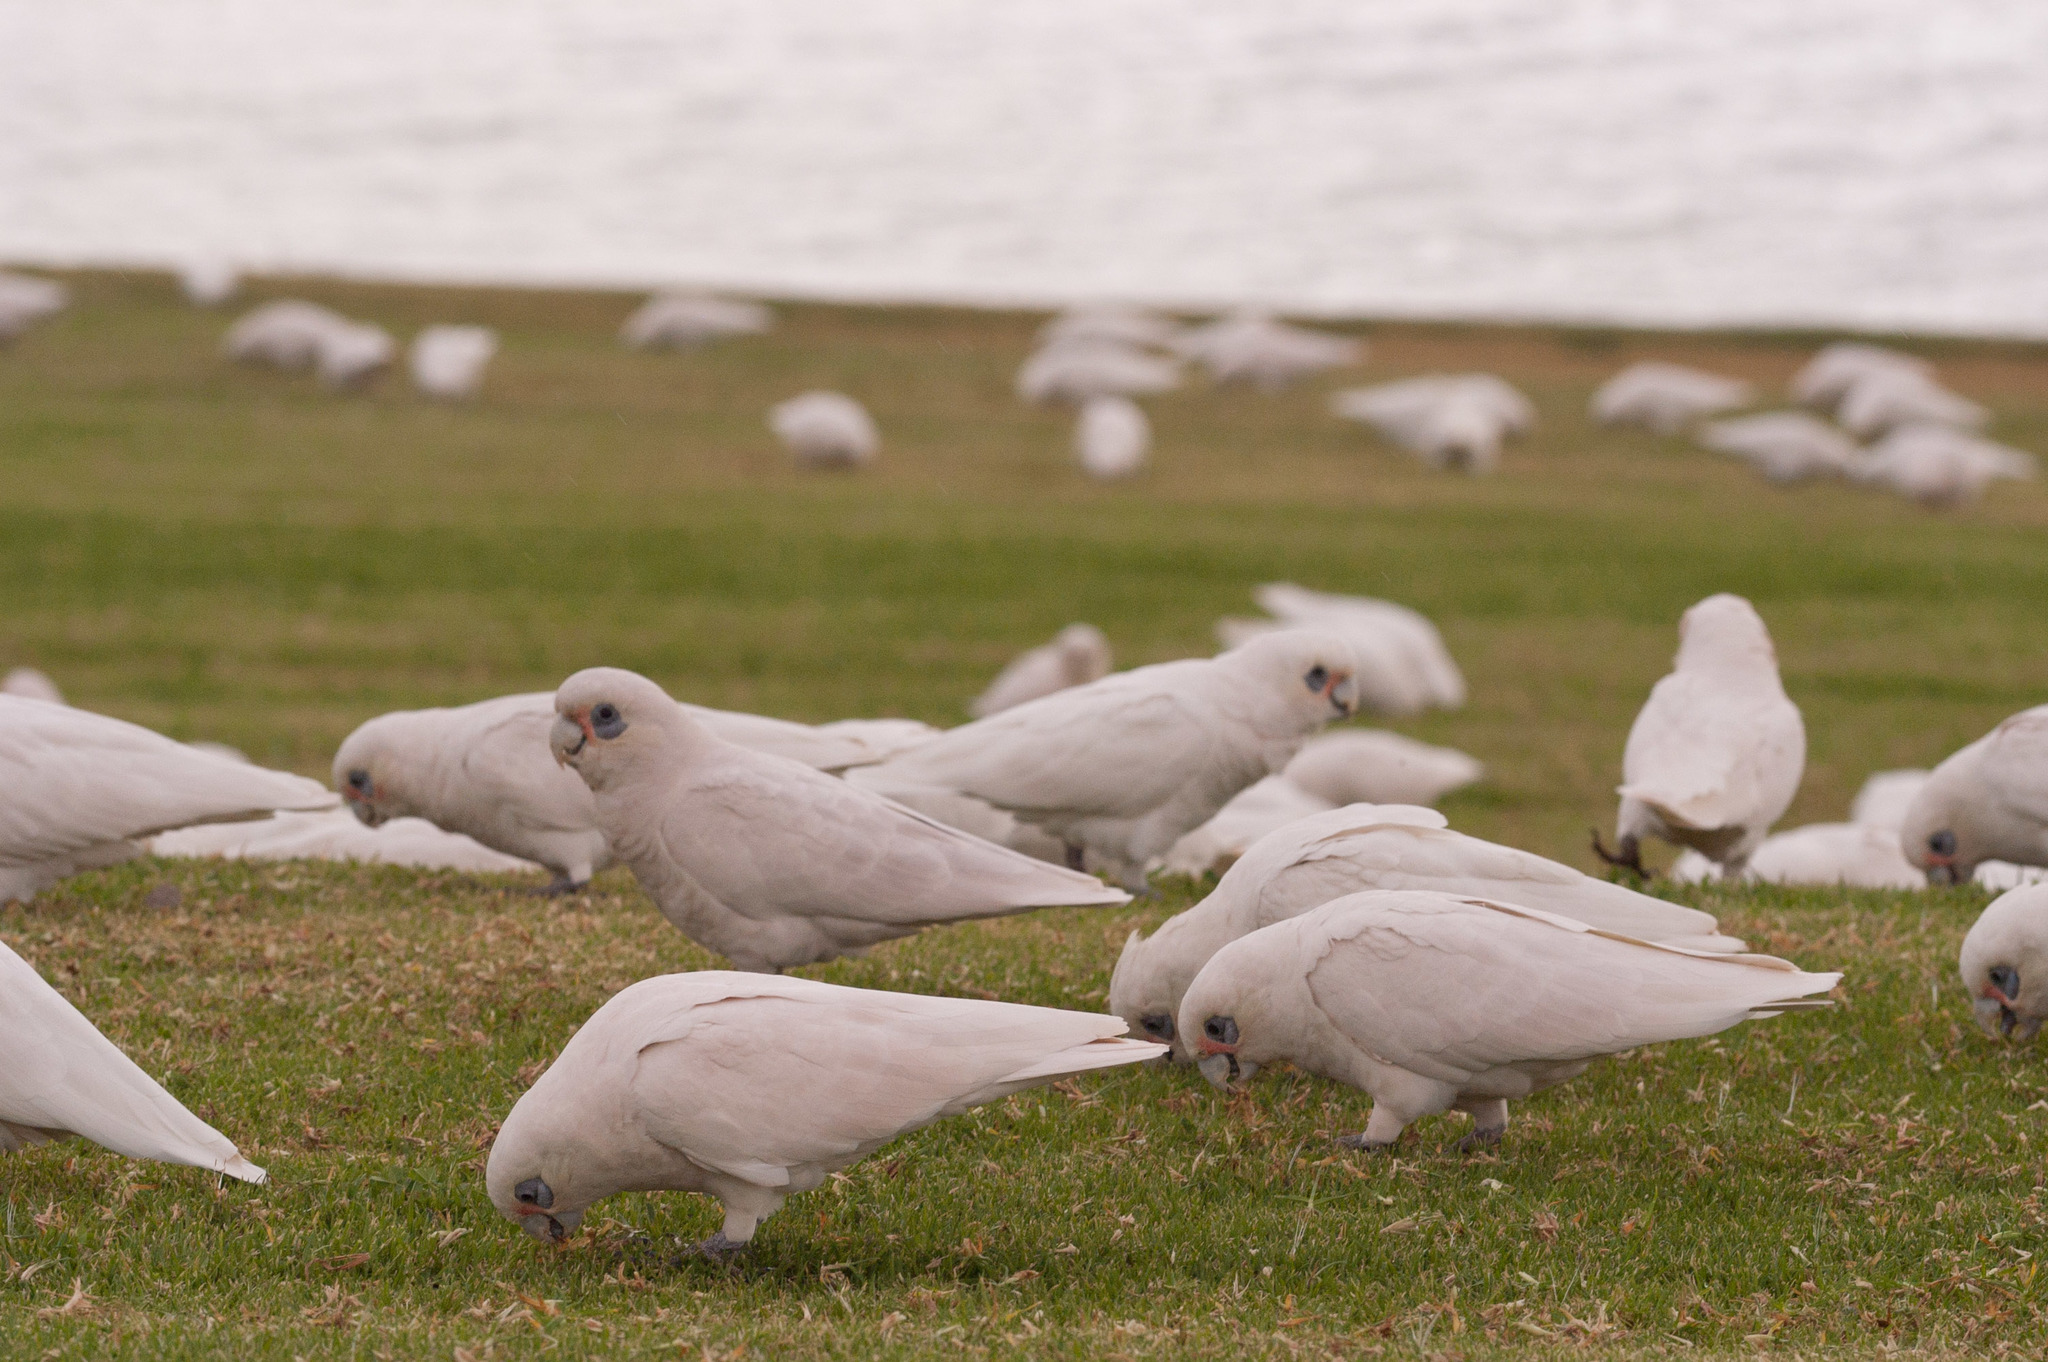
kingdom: Animalia
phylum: Chordata
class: Aves
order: Psittaciformes
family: Psittacidae
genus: Cacatua
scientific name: Cacatua sanguinea
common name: Little corella
